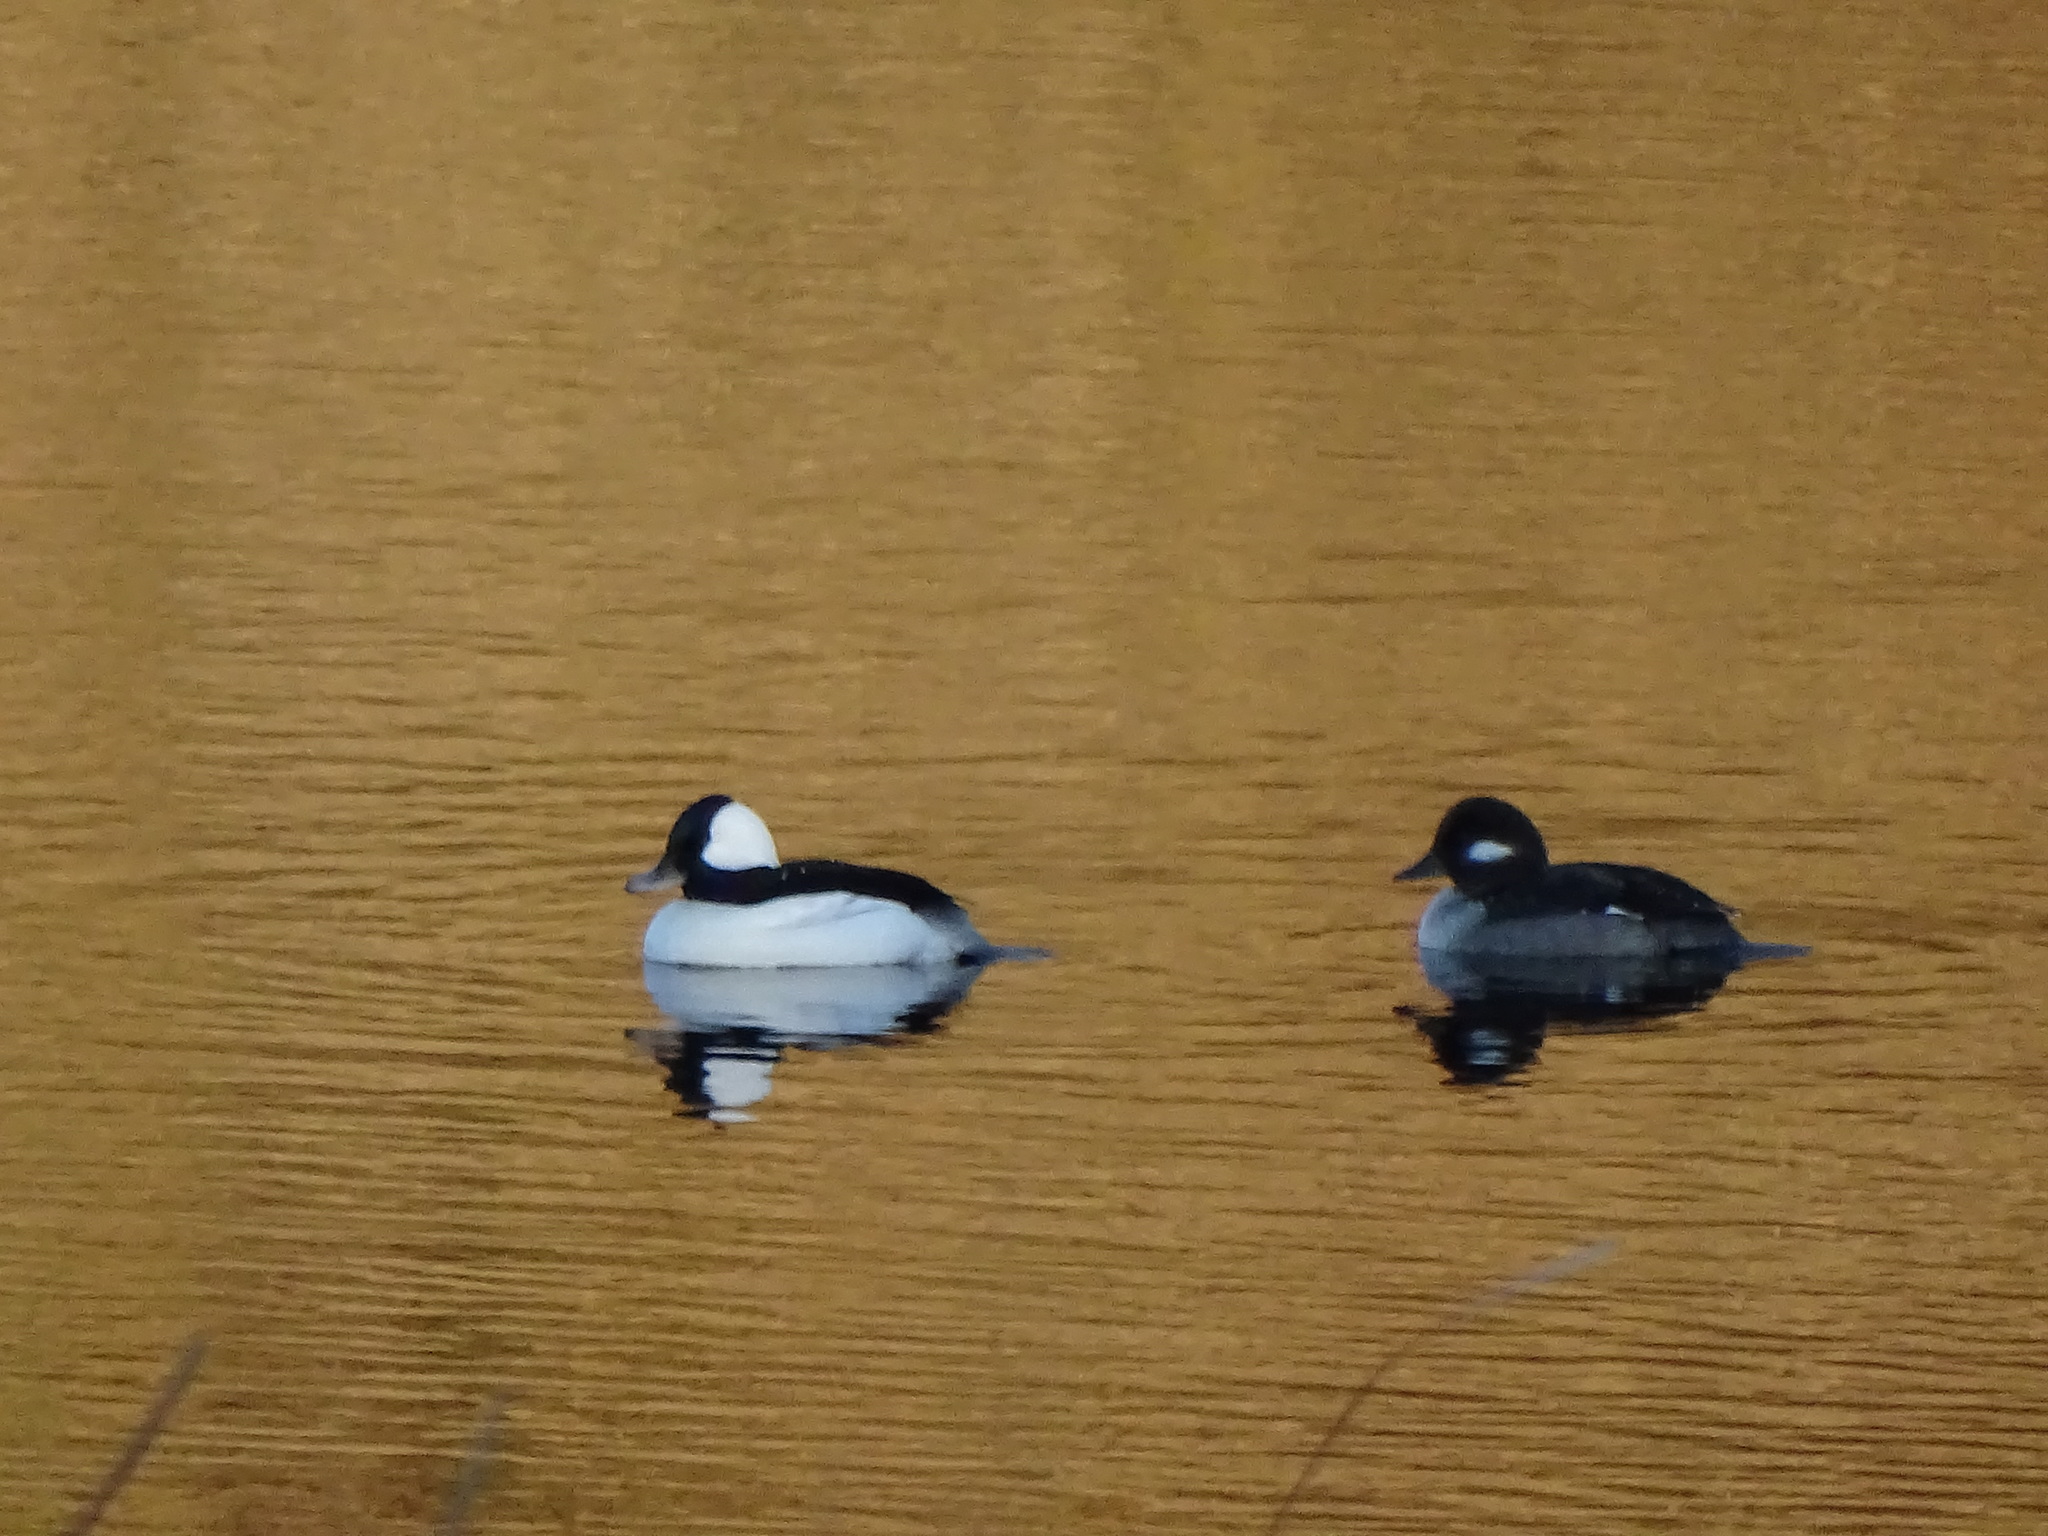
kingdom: Animalia
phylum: Chordata
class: Aves
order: Anseriformes
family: Anatidae
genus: Bucephala
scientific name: Bucephala albeola
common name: Bufflehead
